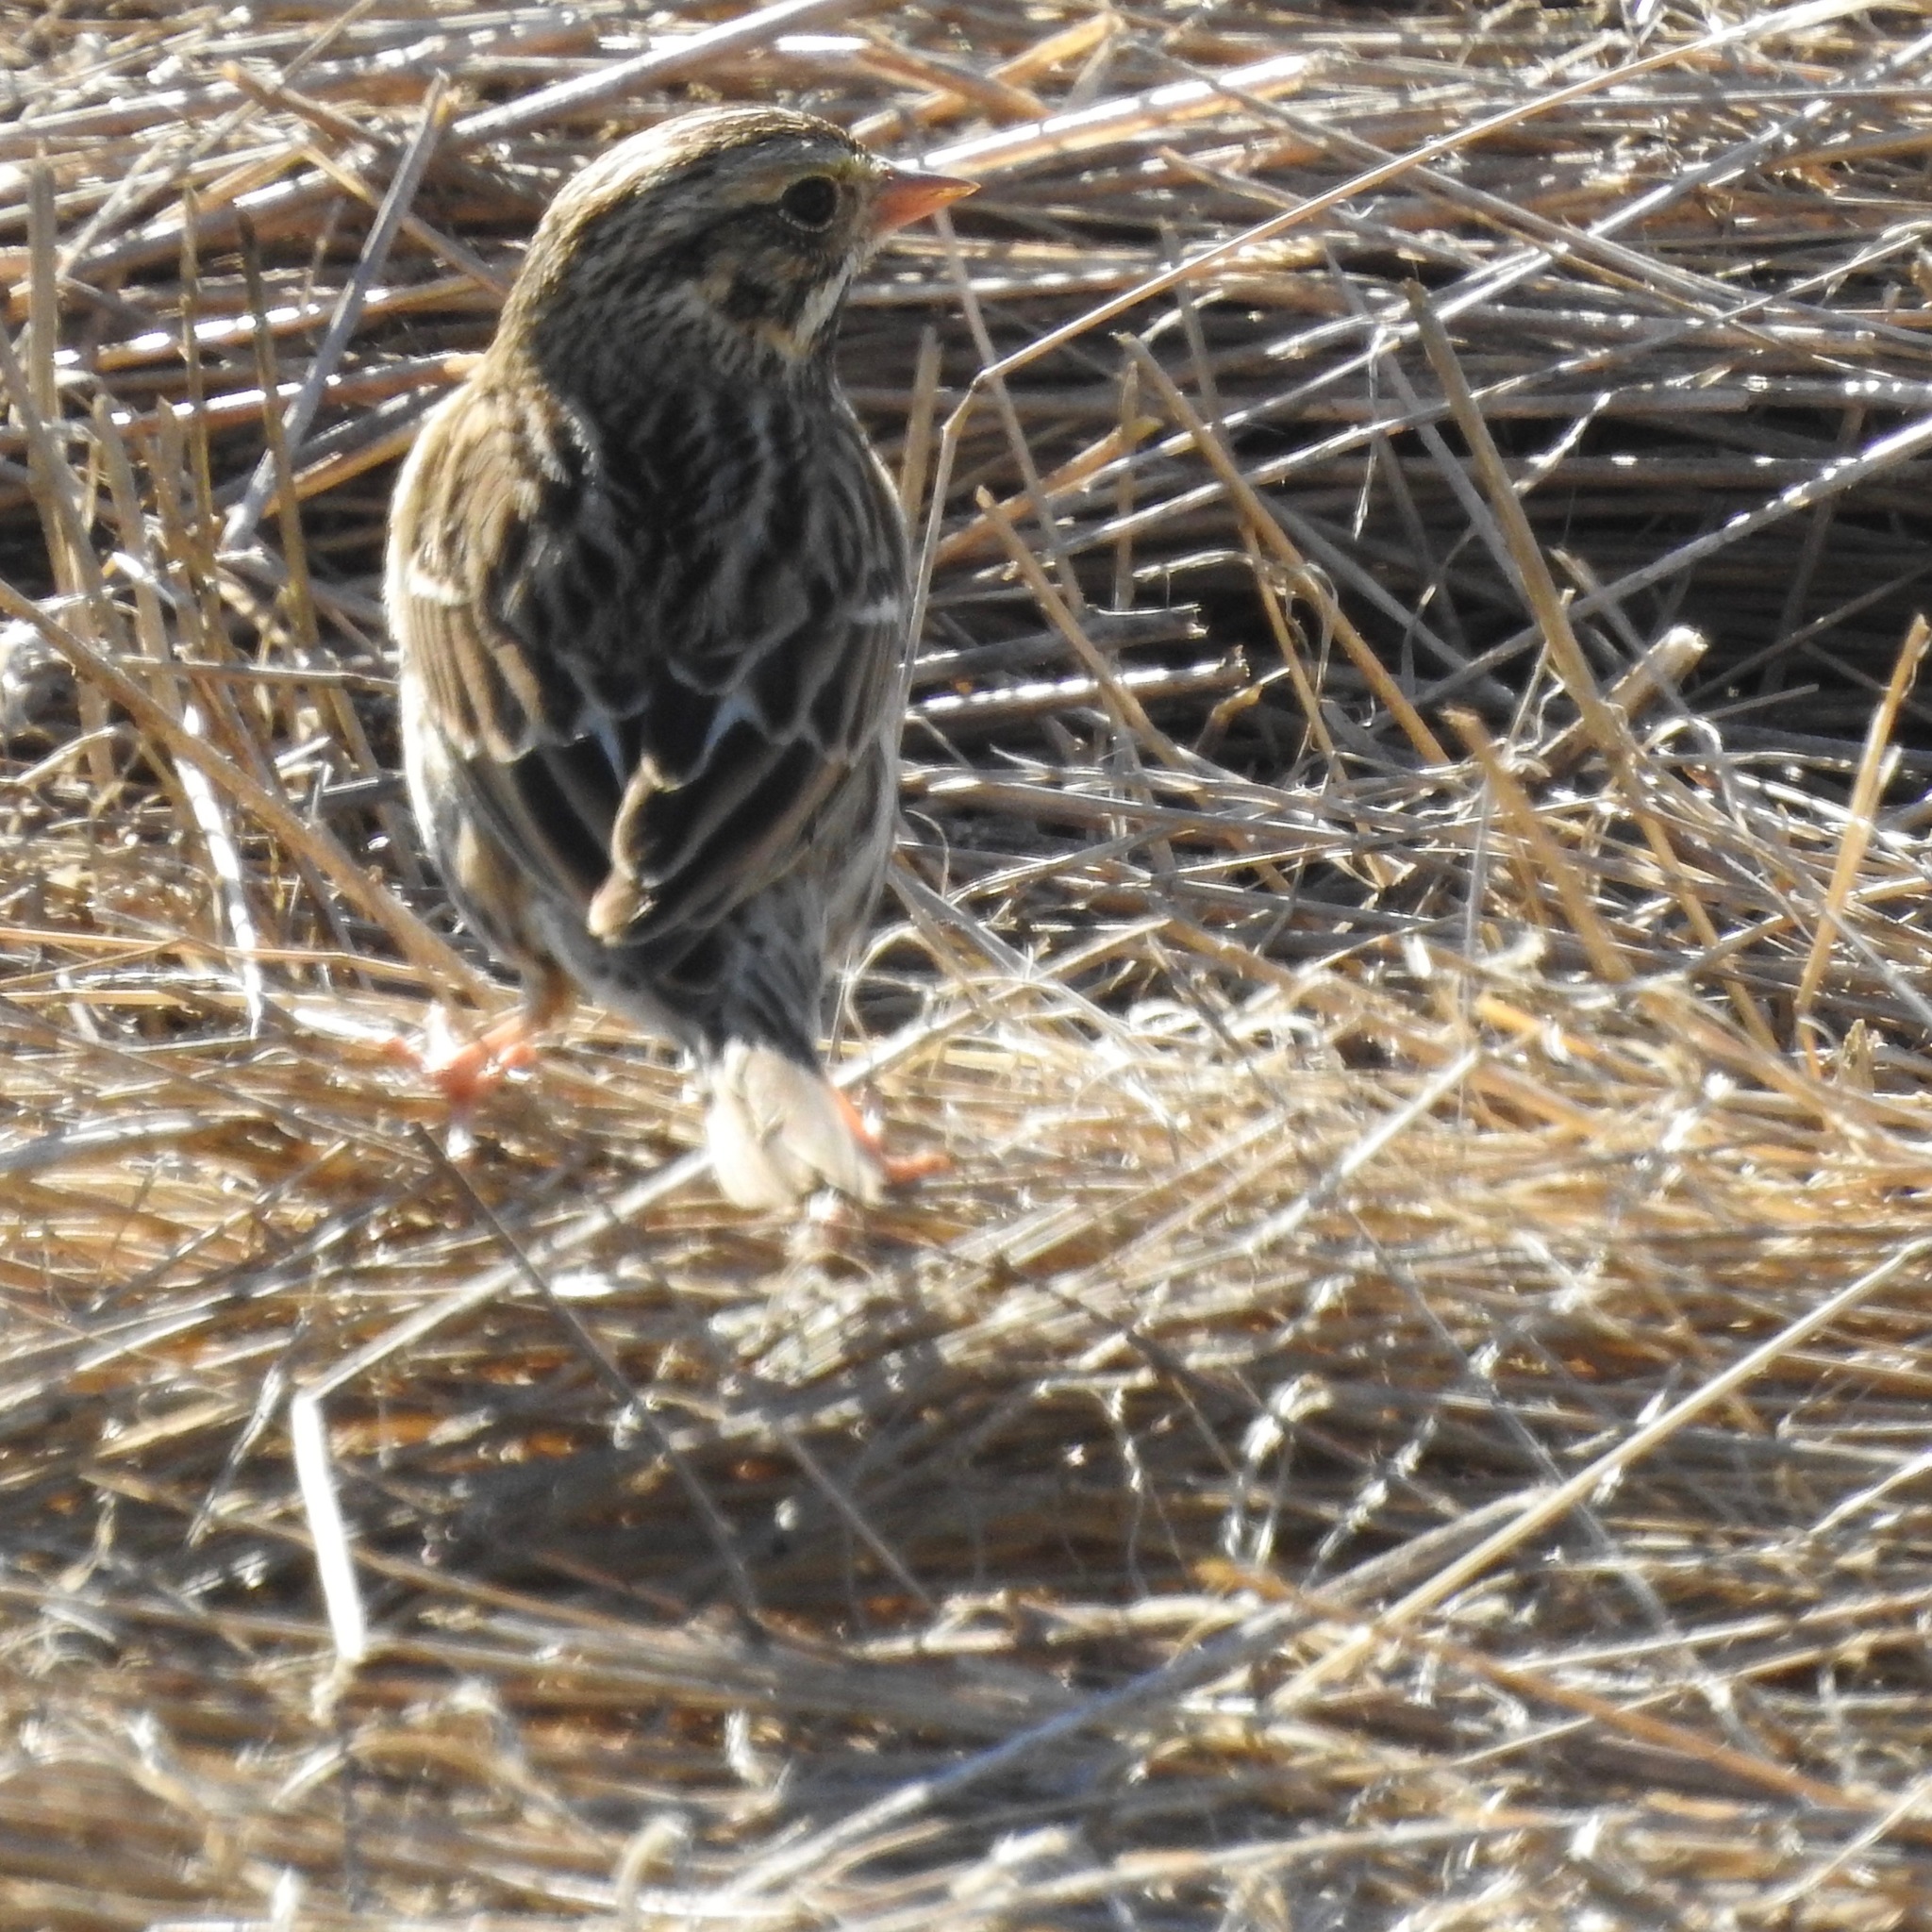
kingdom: Animalia
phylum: Chordata
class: Aves
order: Passeriformes
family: Passerellidae
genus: Passerculus
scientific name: Passerculus sandwichensis
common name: Savannah sparrow
